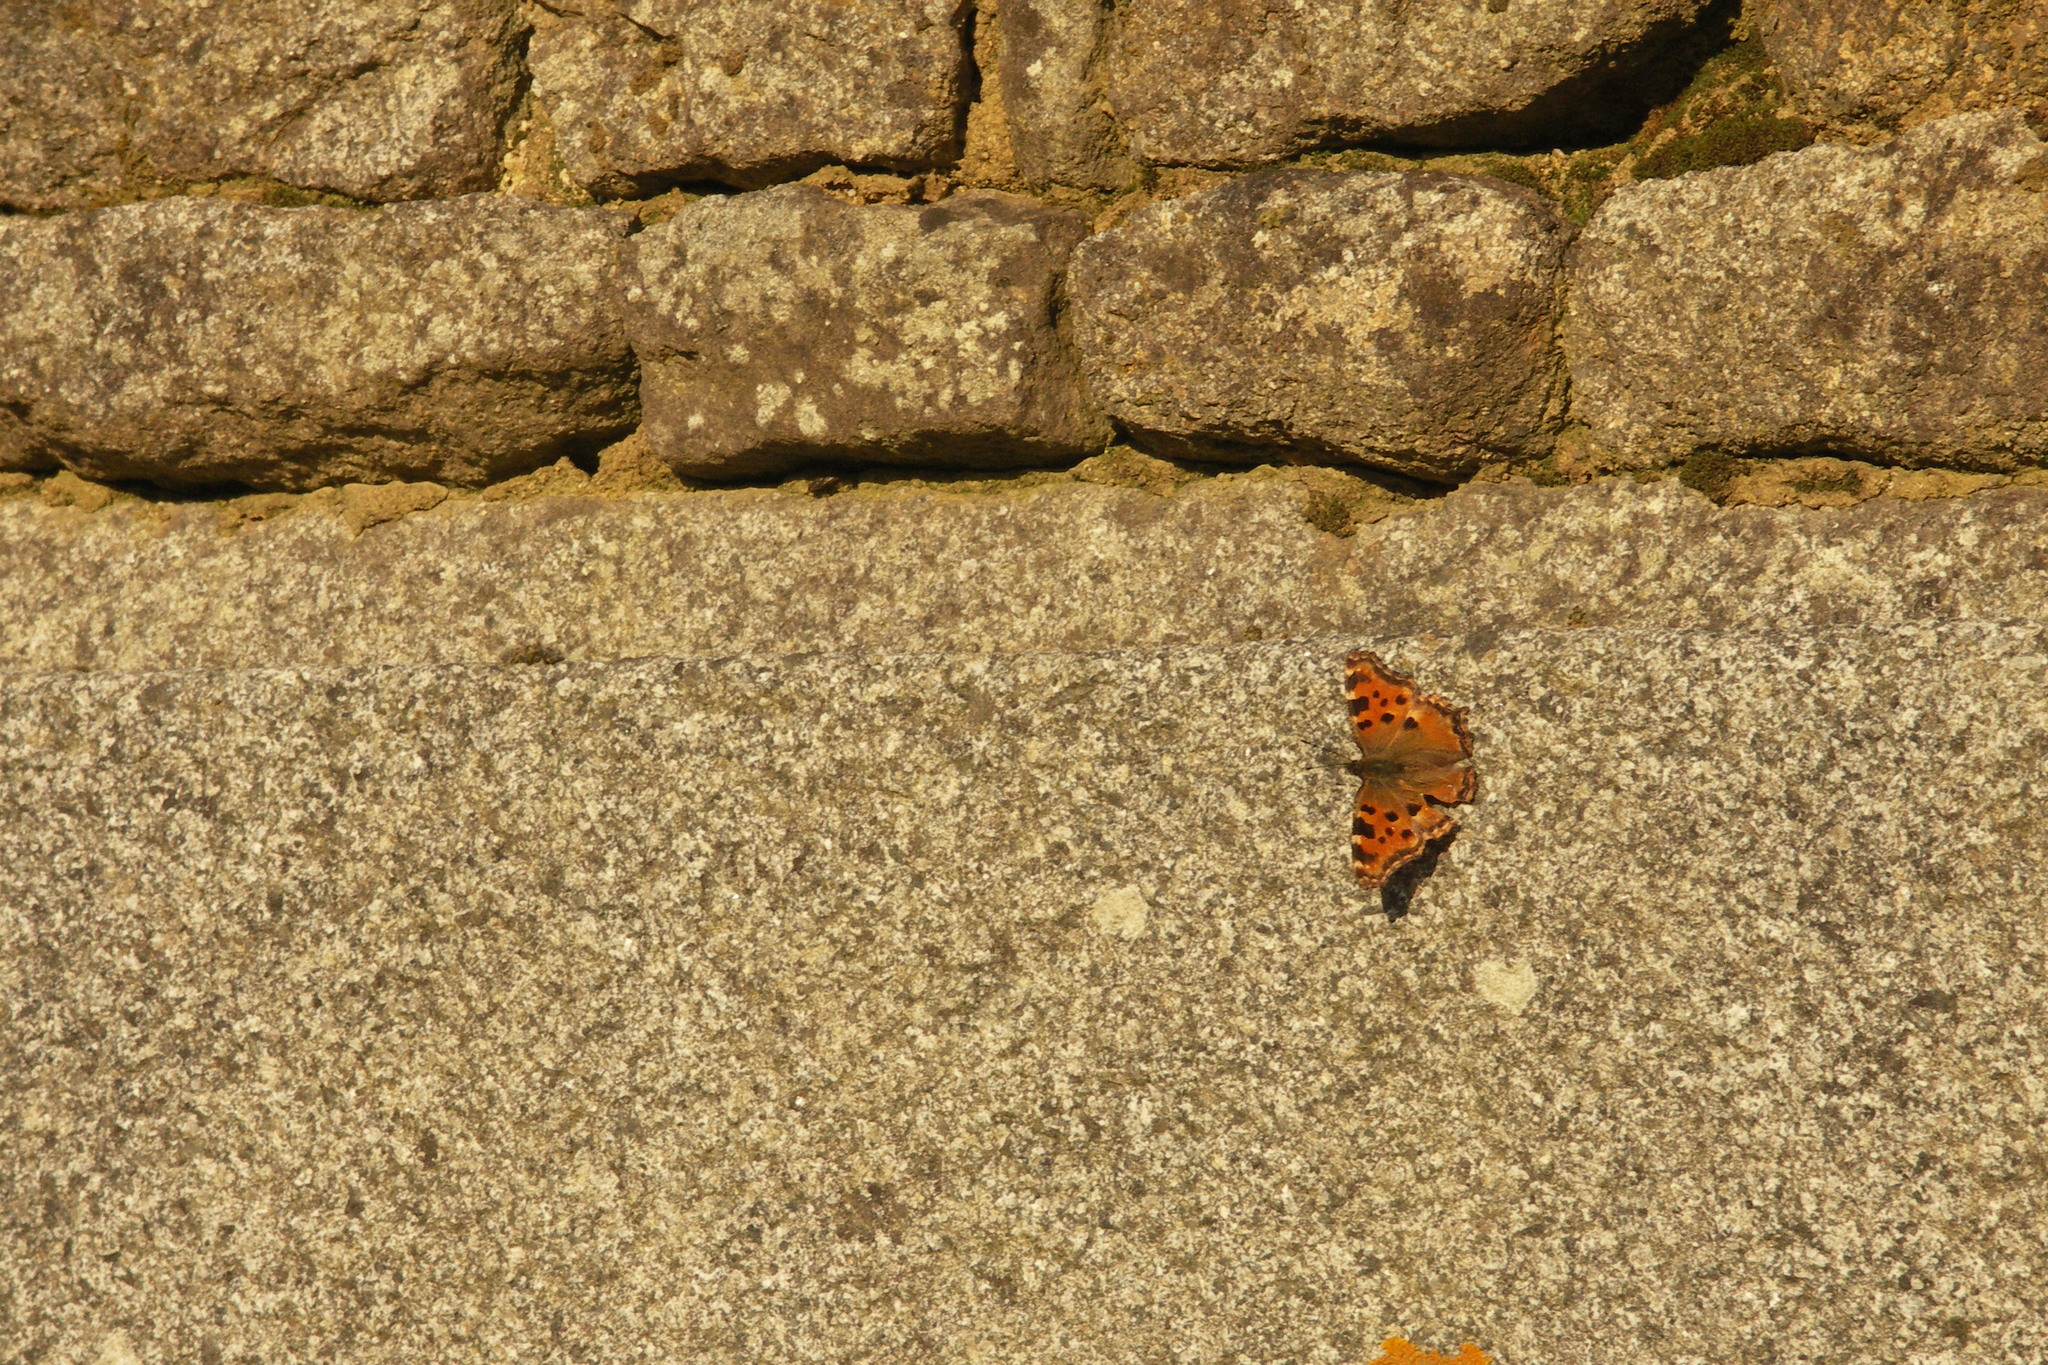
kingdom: Animalia
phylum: Arthropoda
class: Insecta
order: Lepidoptera
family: Nymphalidae
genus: Nymphalis
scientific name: Nymphalis polychloros
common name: Large tortoiseshell
